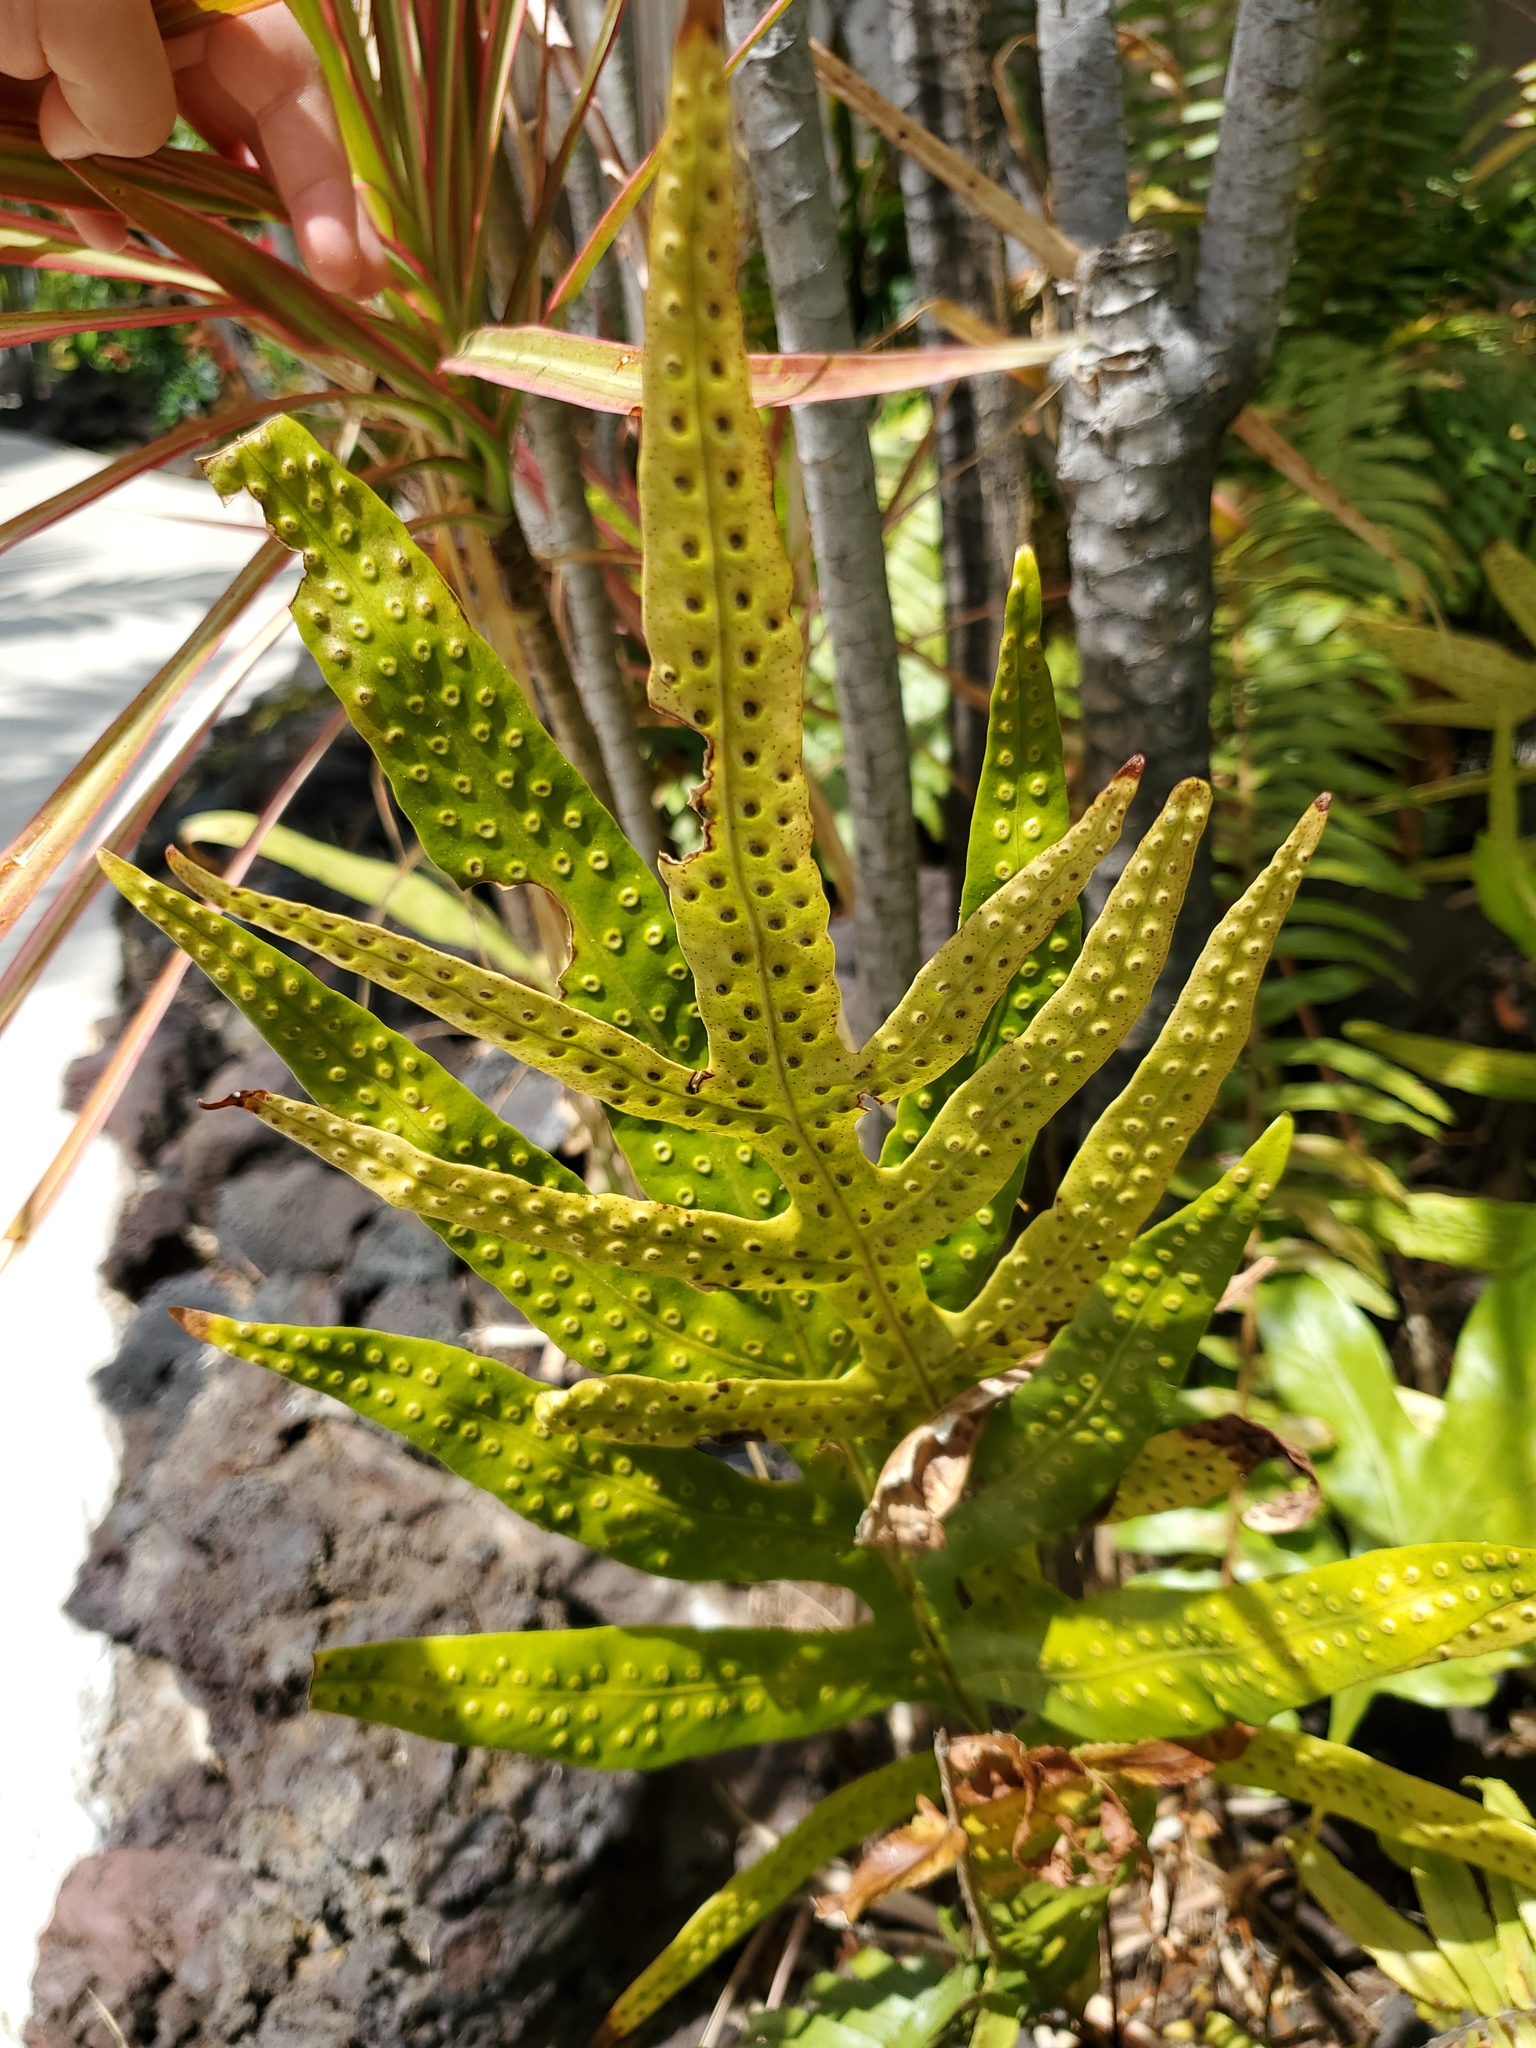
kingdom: Plantae
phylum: Tracheophyta
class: Polypodiopsida
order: Polypodiales
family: Polypodiaceae
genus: Microsorum
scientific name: Microsorum grossum
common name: Musk fern
